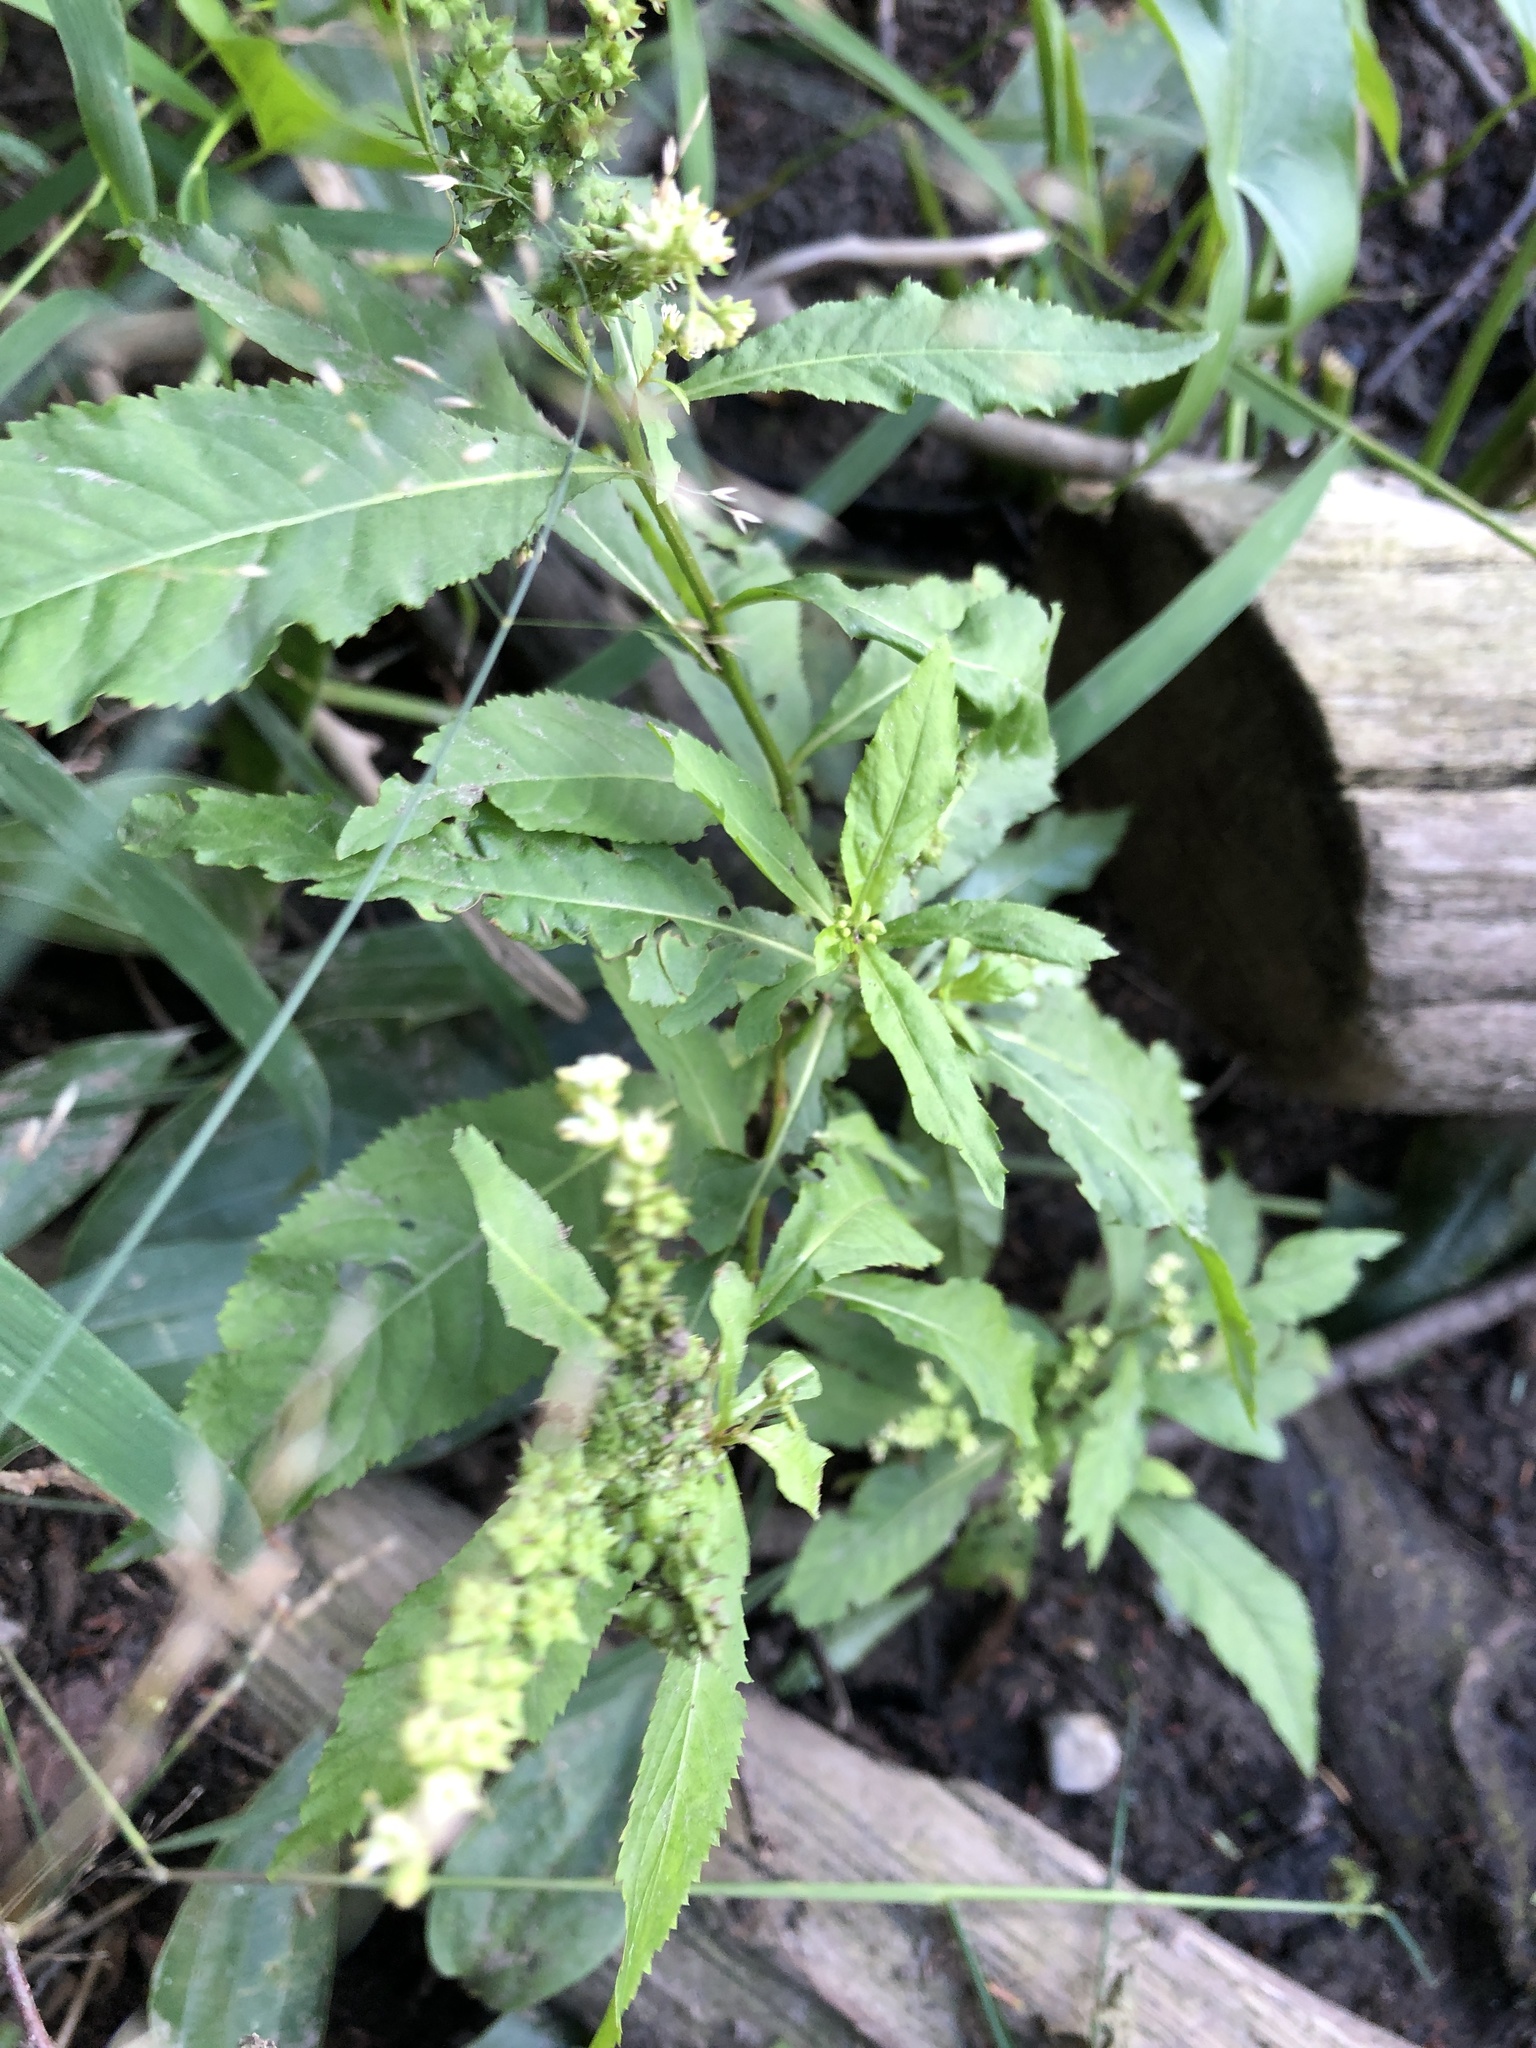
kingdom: Plantae
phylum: Tracheophyta
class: Magnoliopsida
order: Saxifragales
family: Penthoraceae
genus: Penthorum
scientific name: Penthorum sedoides
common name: Ditch stonecrop
